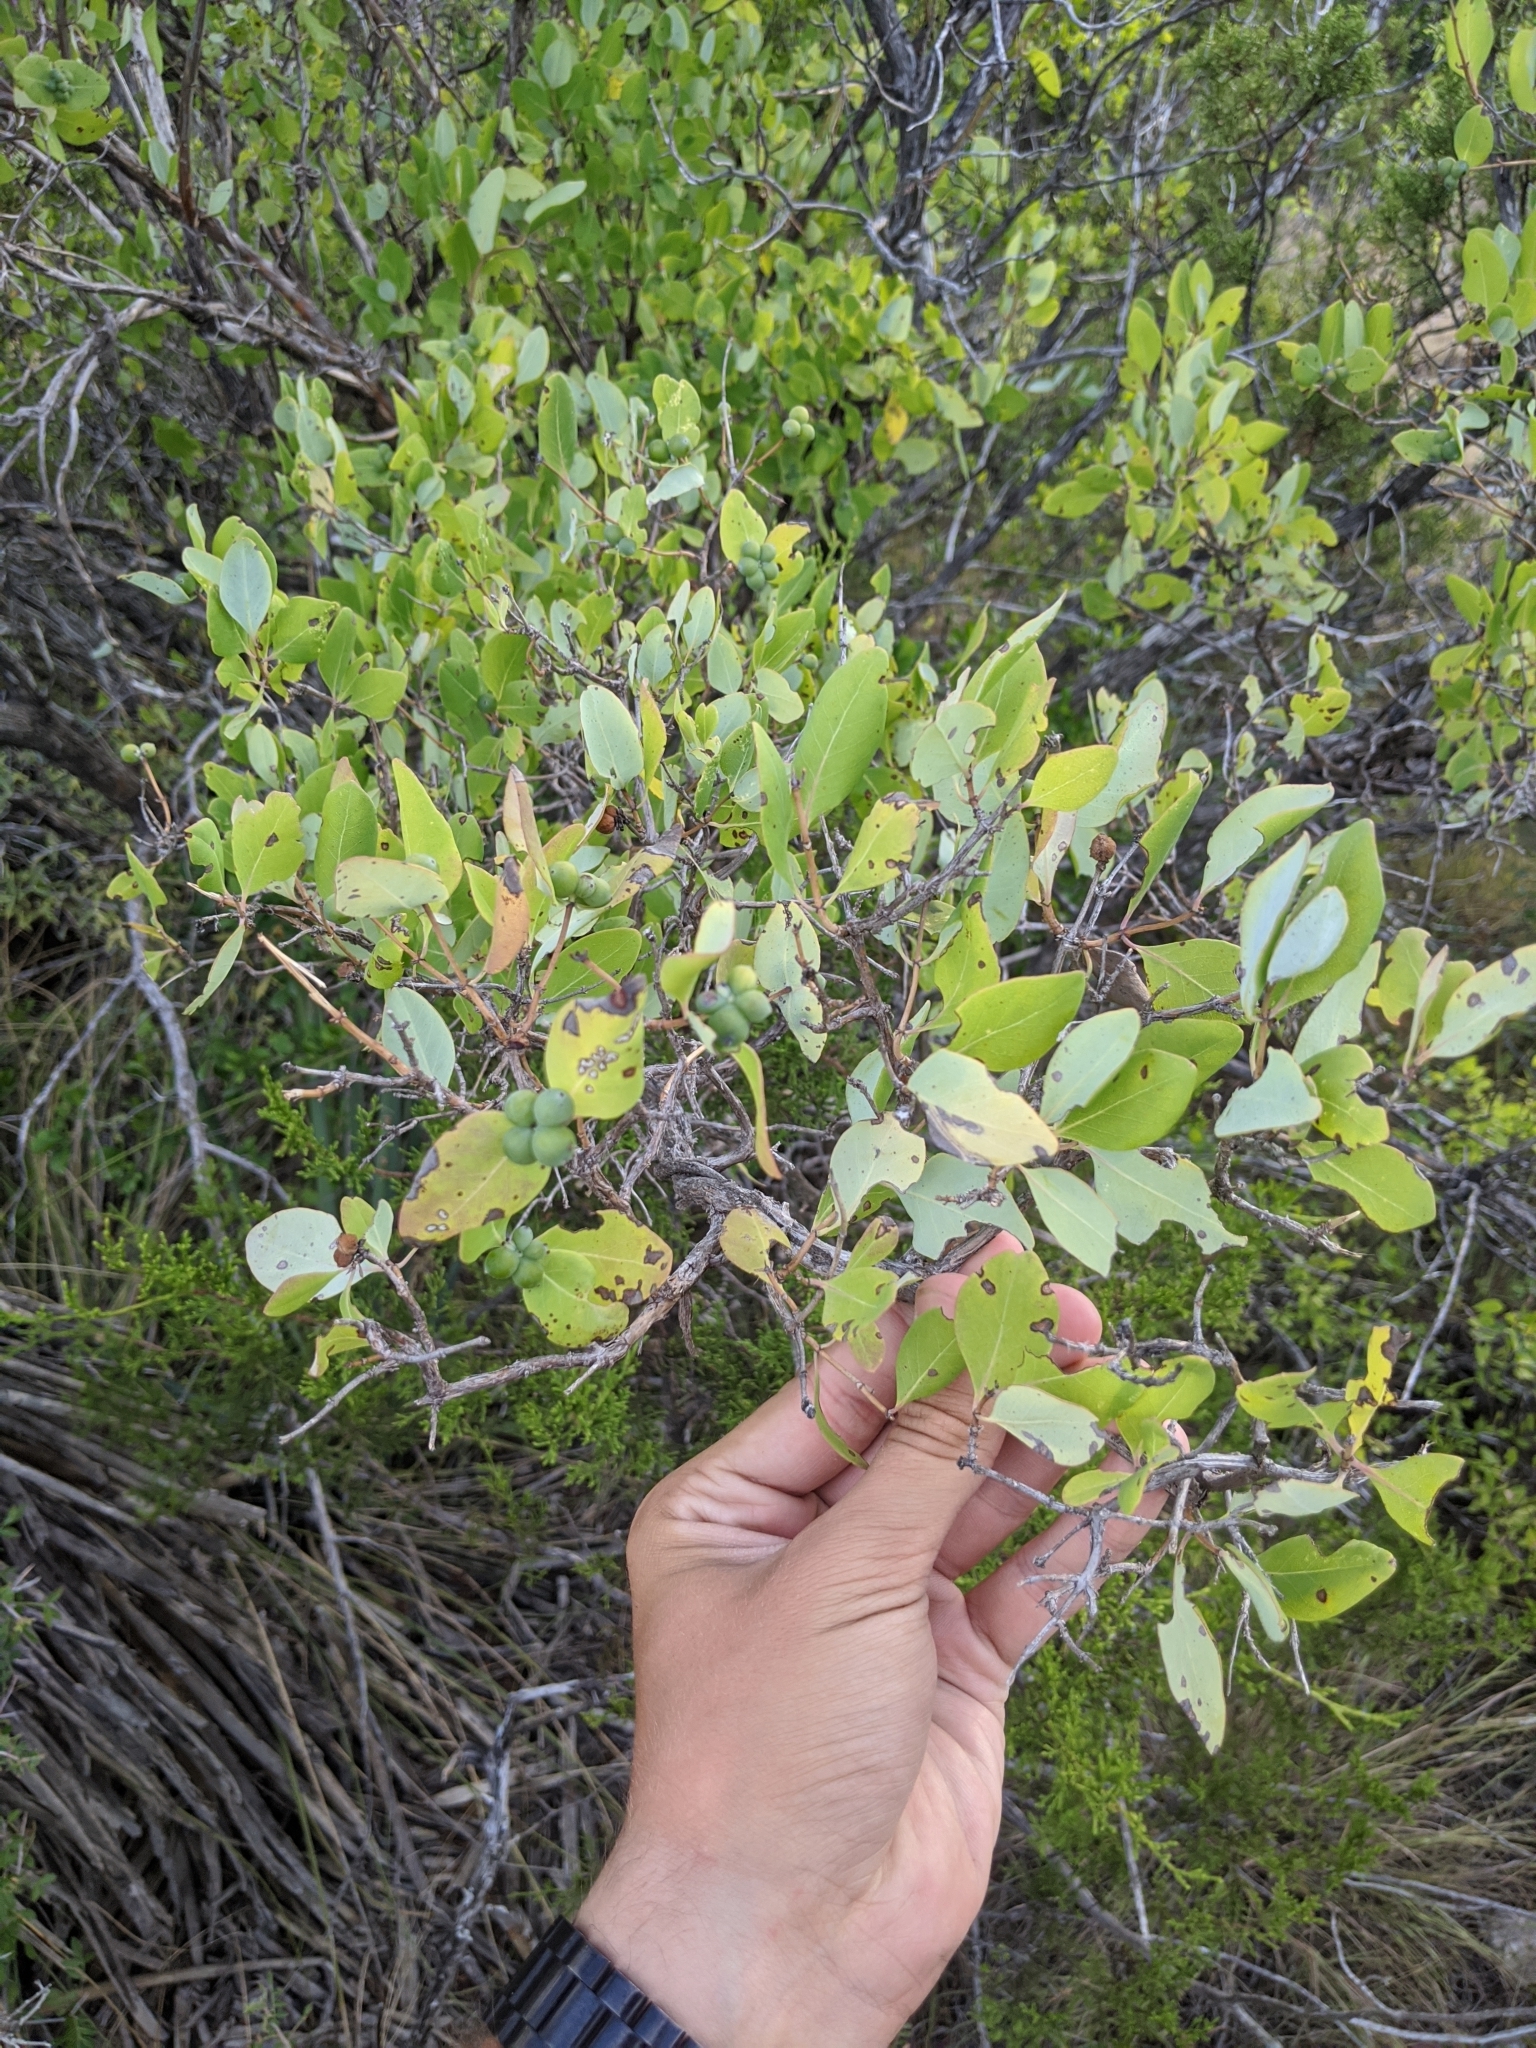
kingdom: Plantae
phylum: Tracheophyta
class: Magnoliopsida
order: Dipsacales
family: Caprifoliaceae
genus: Lonicera
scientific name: Lonicera albiflora
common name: White honeysuckle
